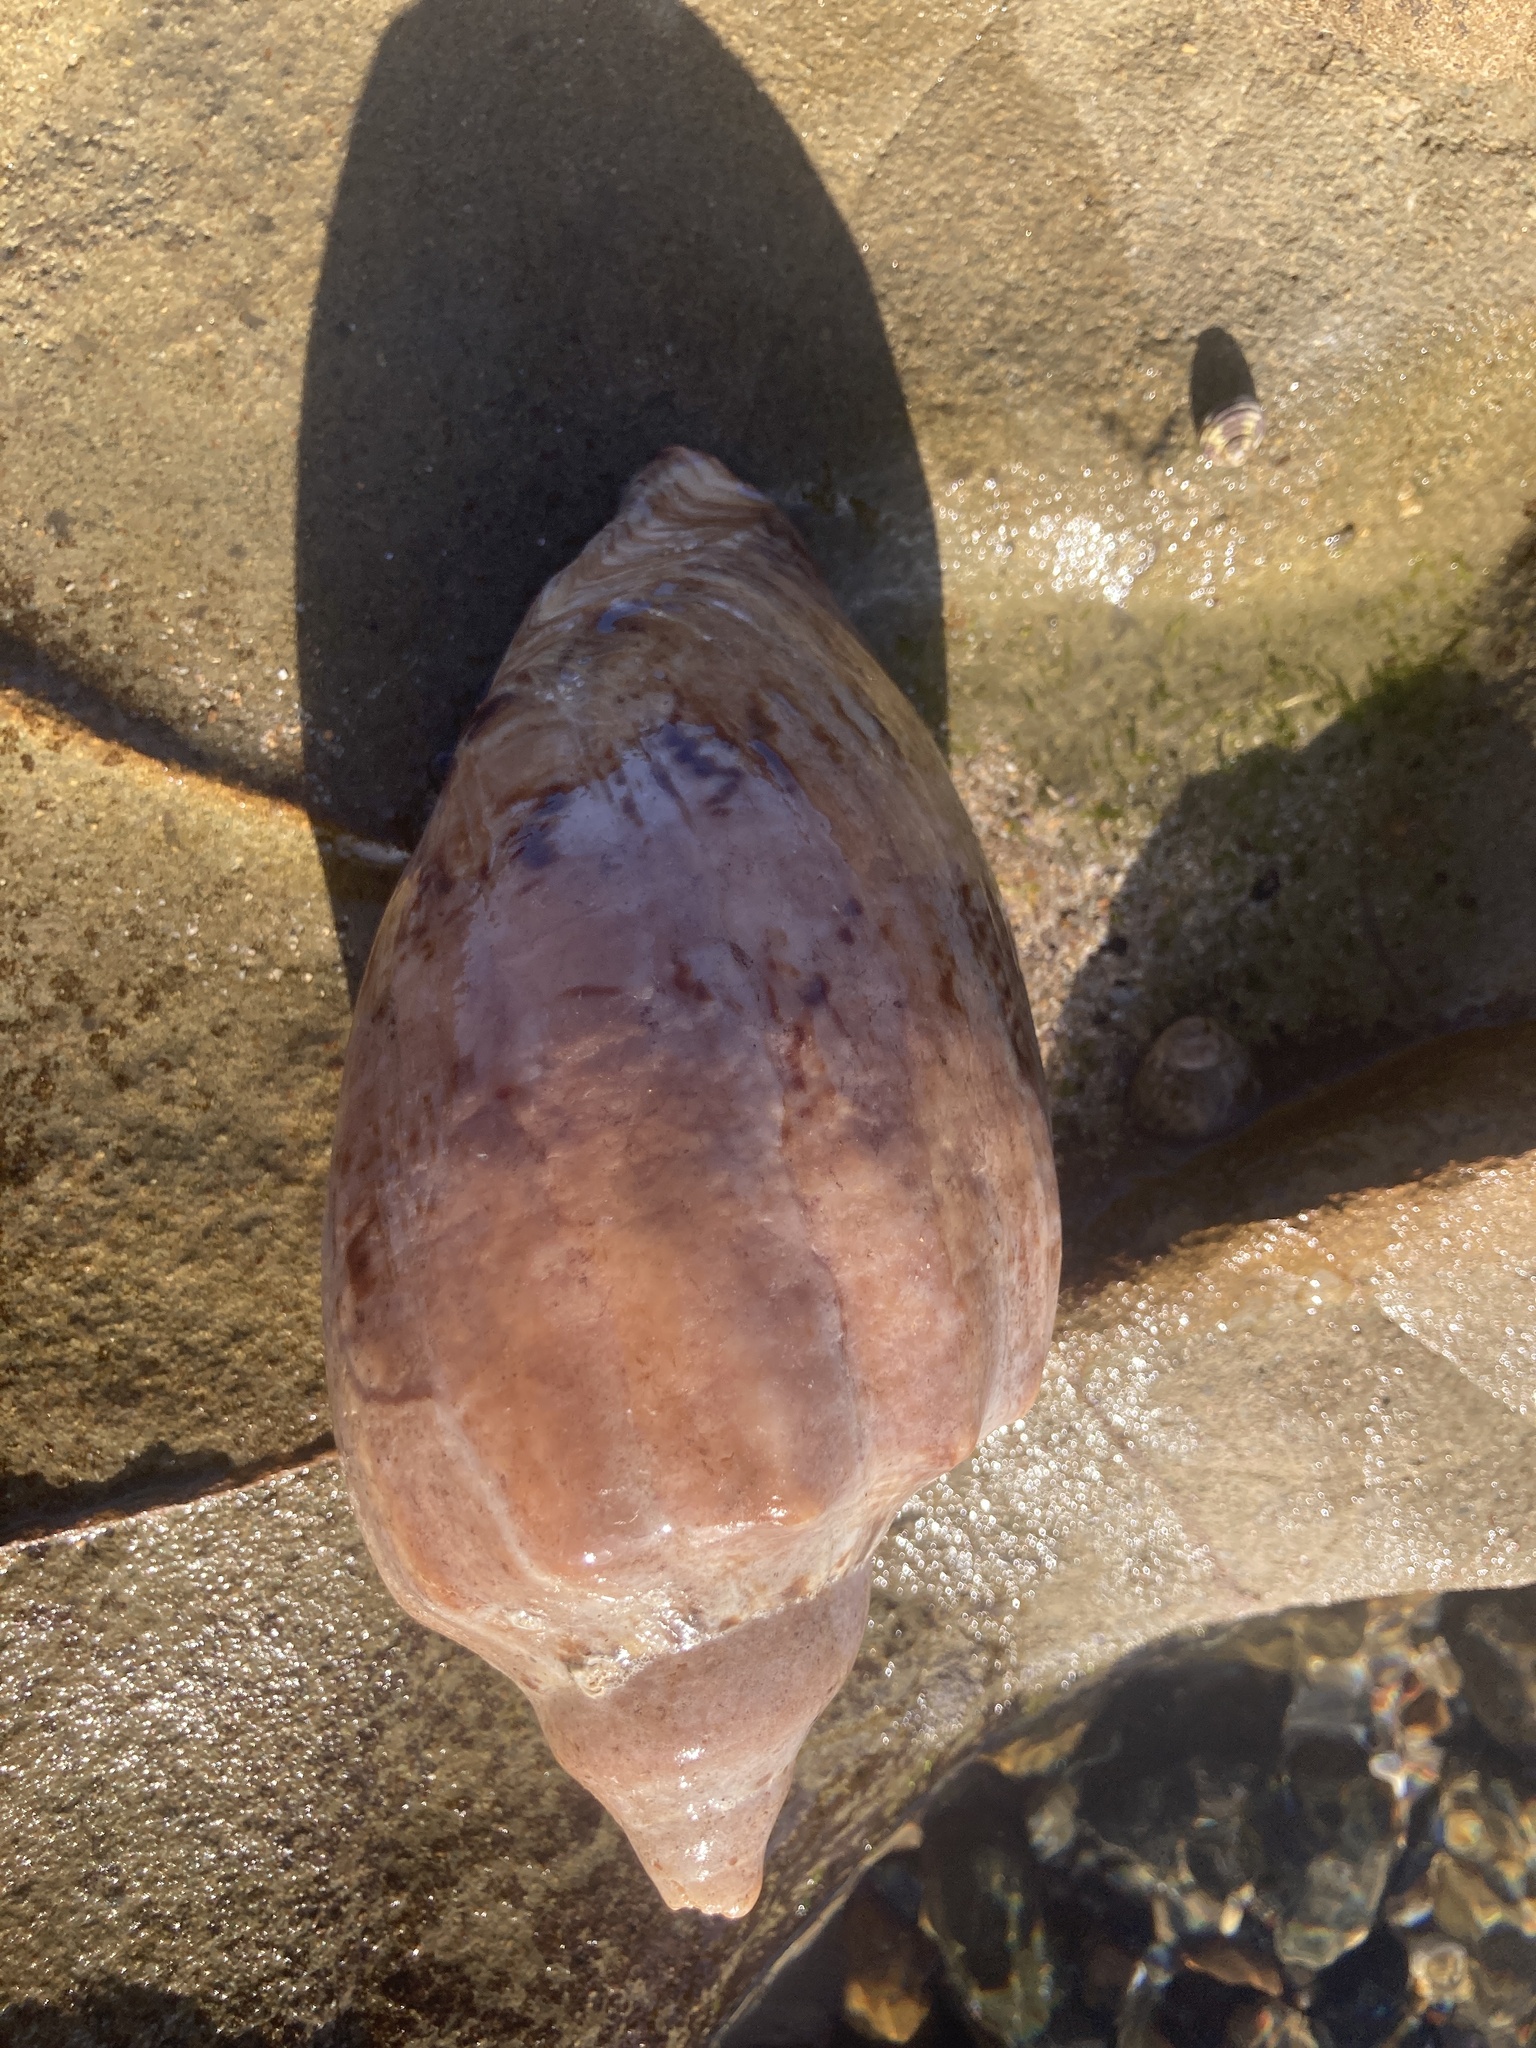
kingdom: Animalia
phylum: Mollusca
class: Gastropoda
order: Neogastropoda
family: Volutidae
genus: Cymbiola
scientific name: Cymbiola magnifica
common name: Magnificent volute
